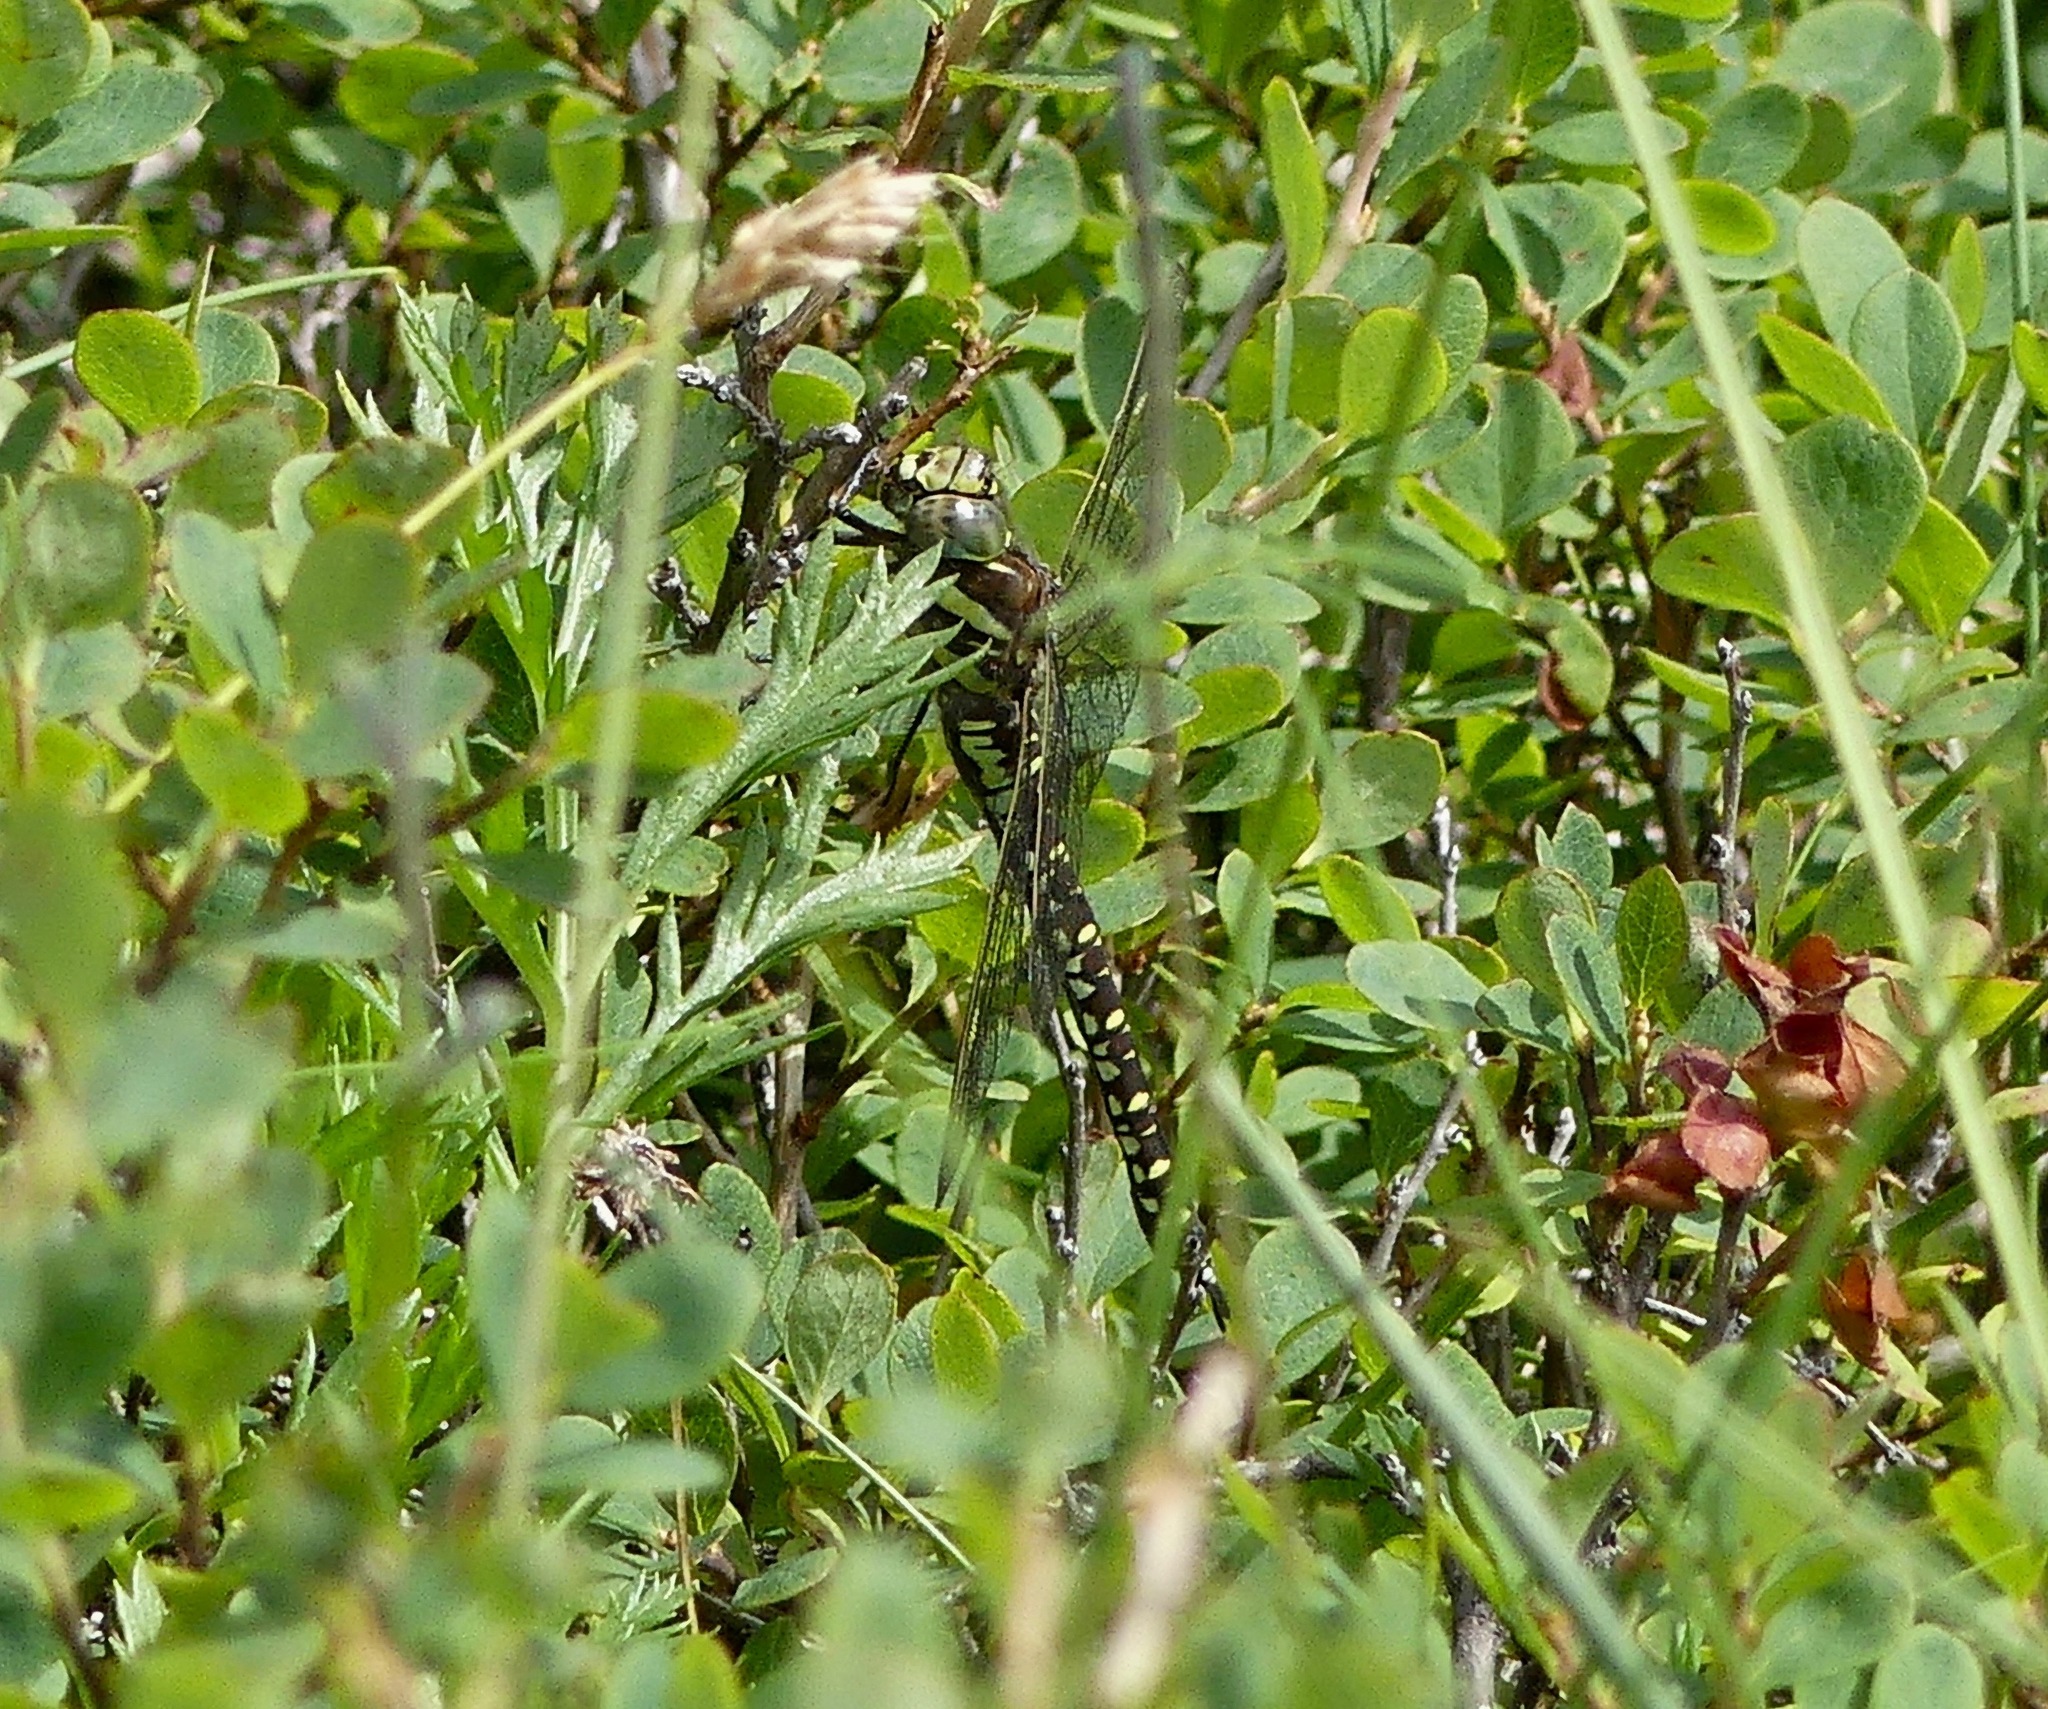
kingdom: Animalia
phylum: Arthropoda
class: Insecta
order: Odonata
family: Aeshnidae
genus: Aeshna
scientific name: Aeshna juncea
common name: Moorland hawker
